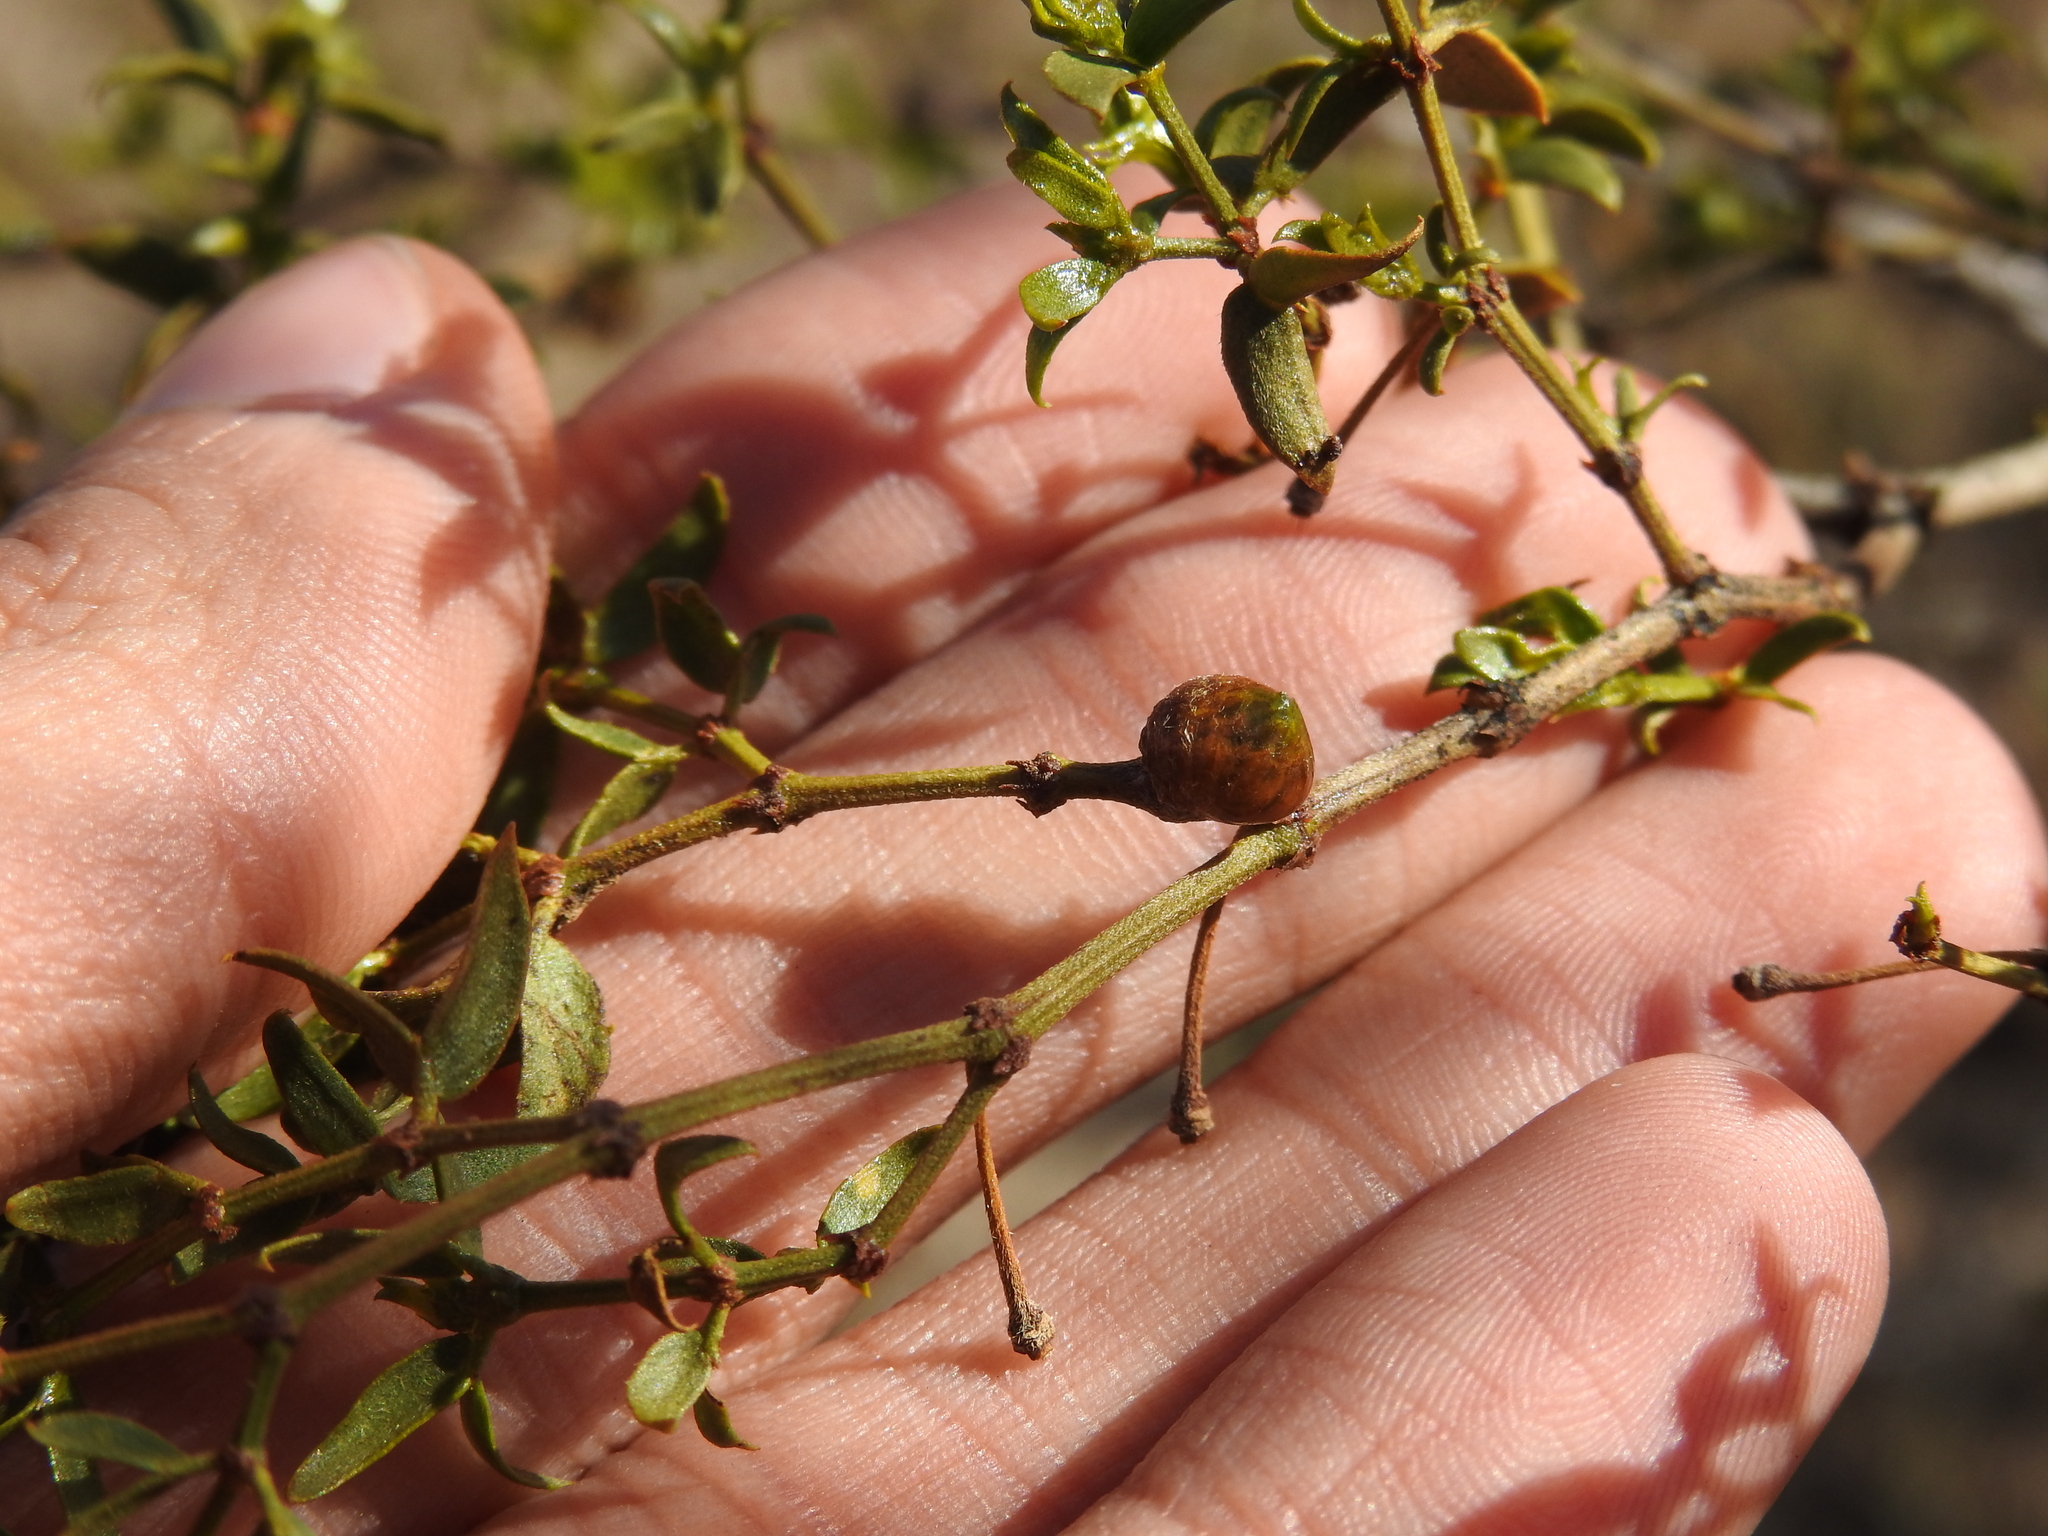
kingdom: Animalia
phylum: Arthropoda
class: Insecta
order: Diptera
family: Cecidomyiidae
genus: Asphondylia
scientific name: Asphondylia resinosa
